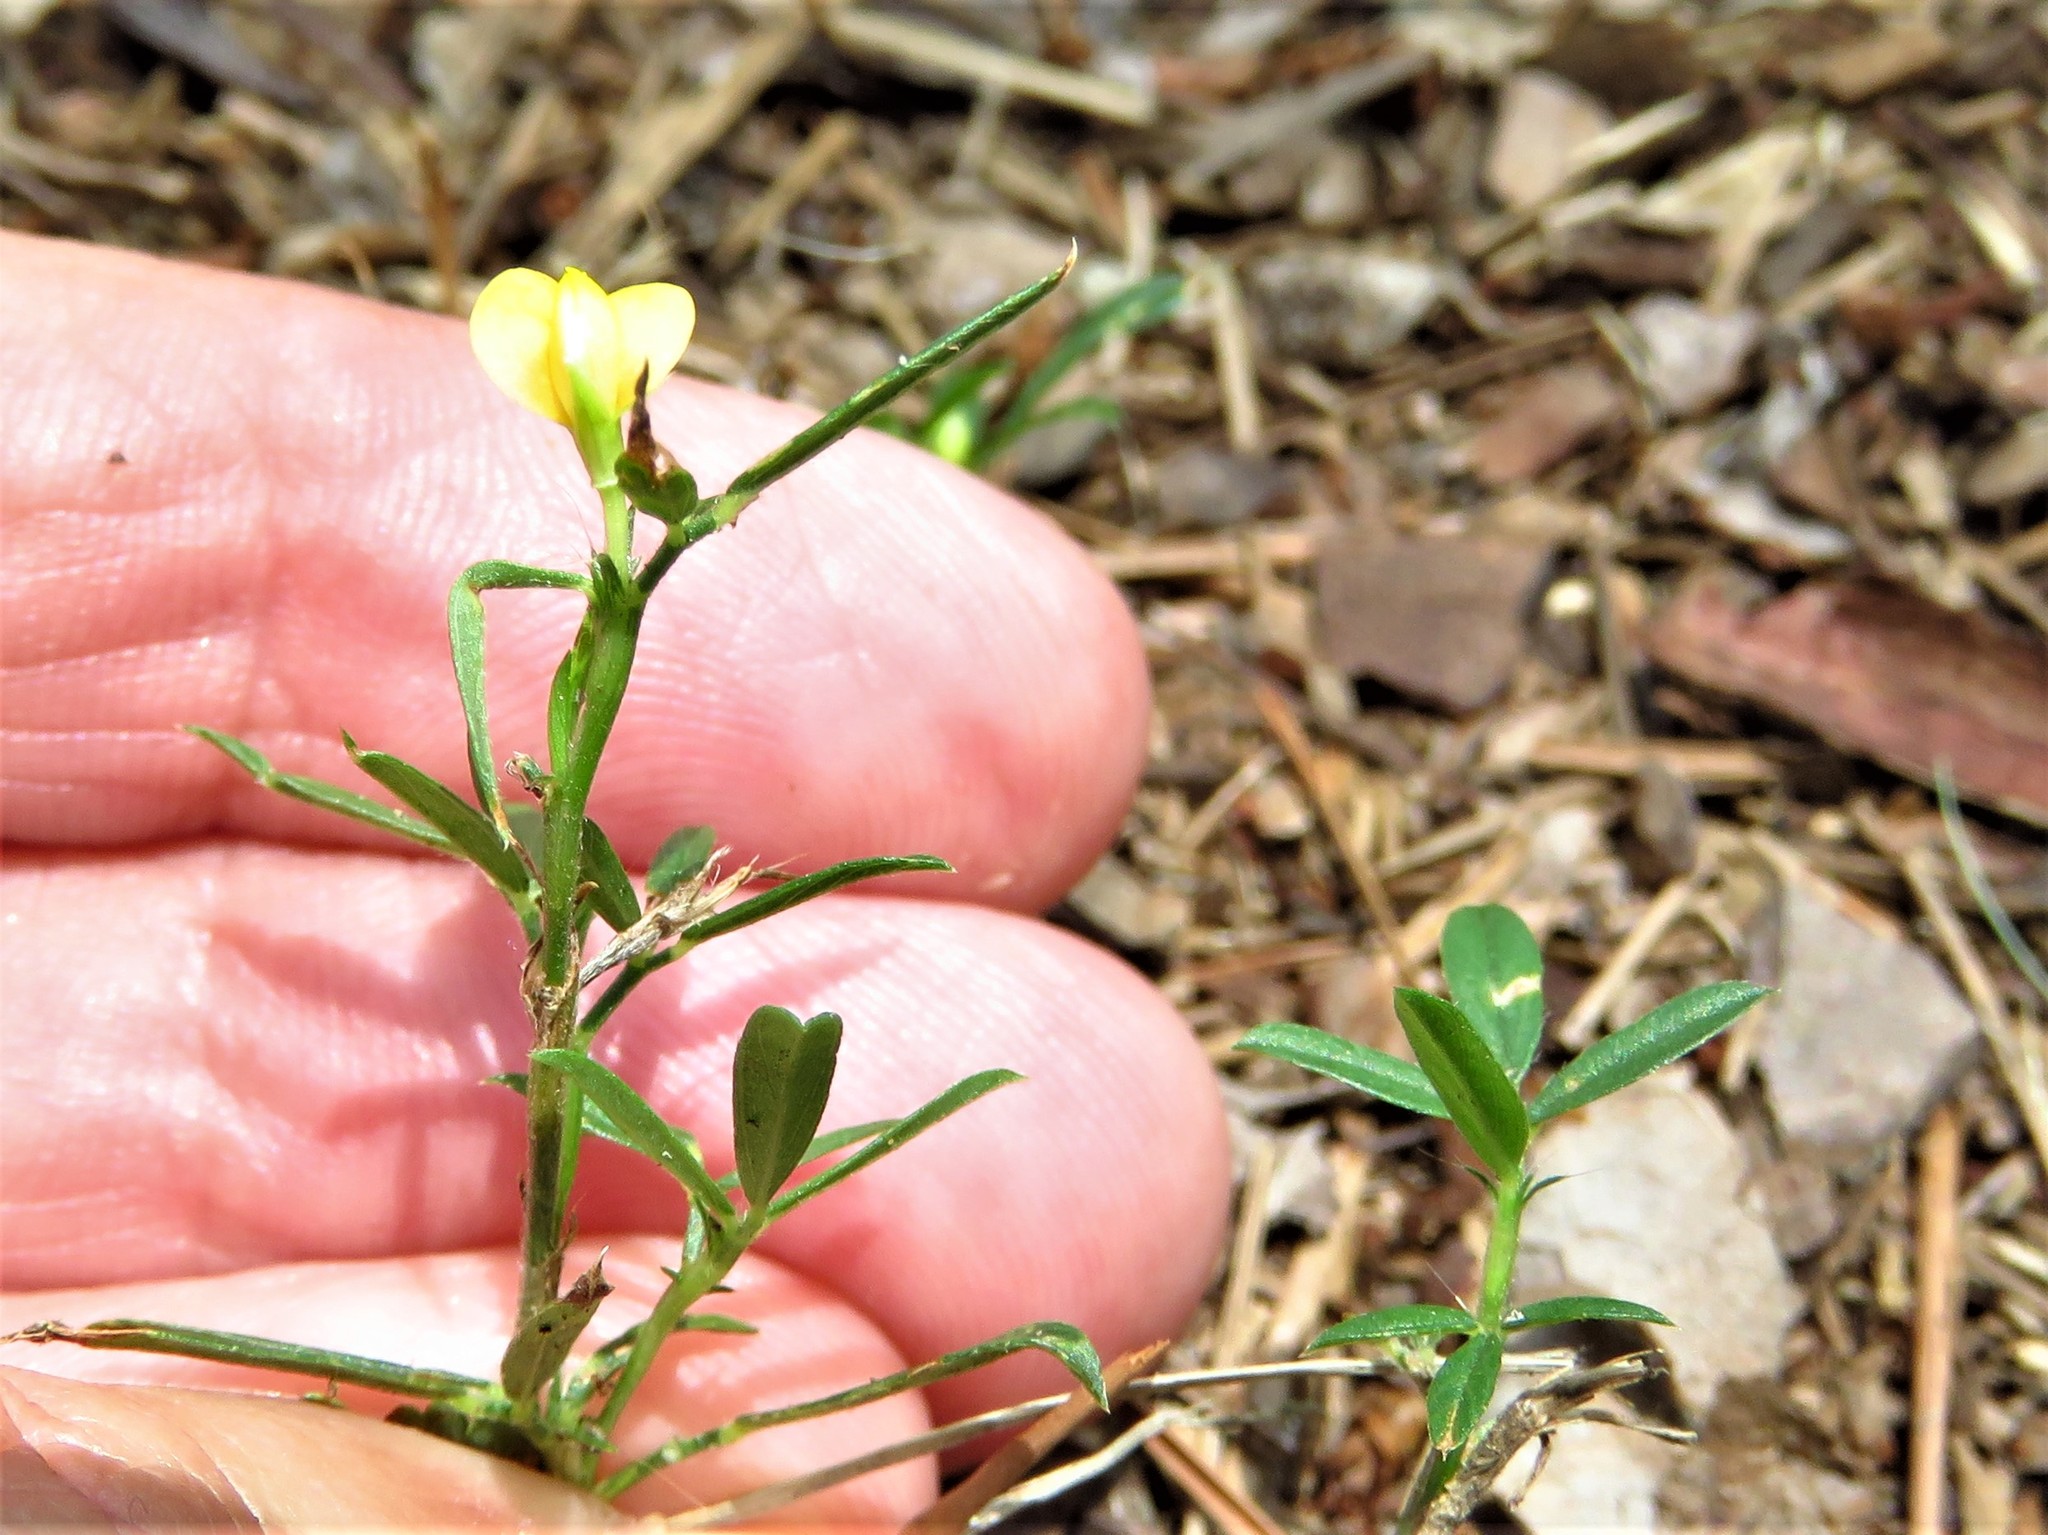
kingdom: Plantae
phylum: Tracheophyta
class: Magnoliopsida
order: Fabales
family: Fabaceae
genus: Stylosanthes
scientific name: Stylosanthes biflora
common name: Two-flower pencil-flower
